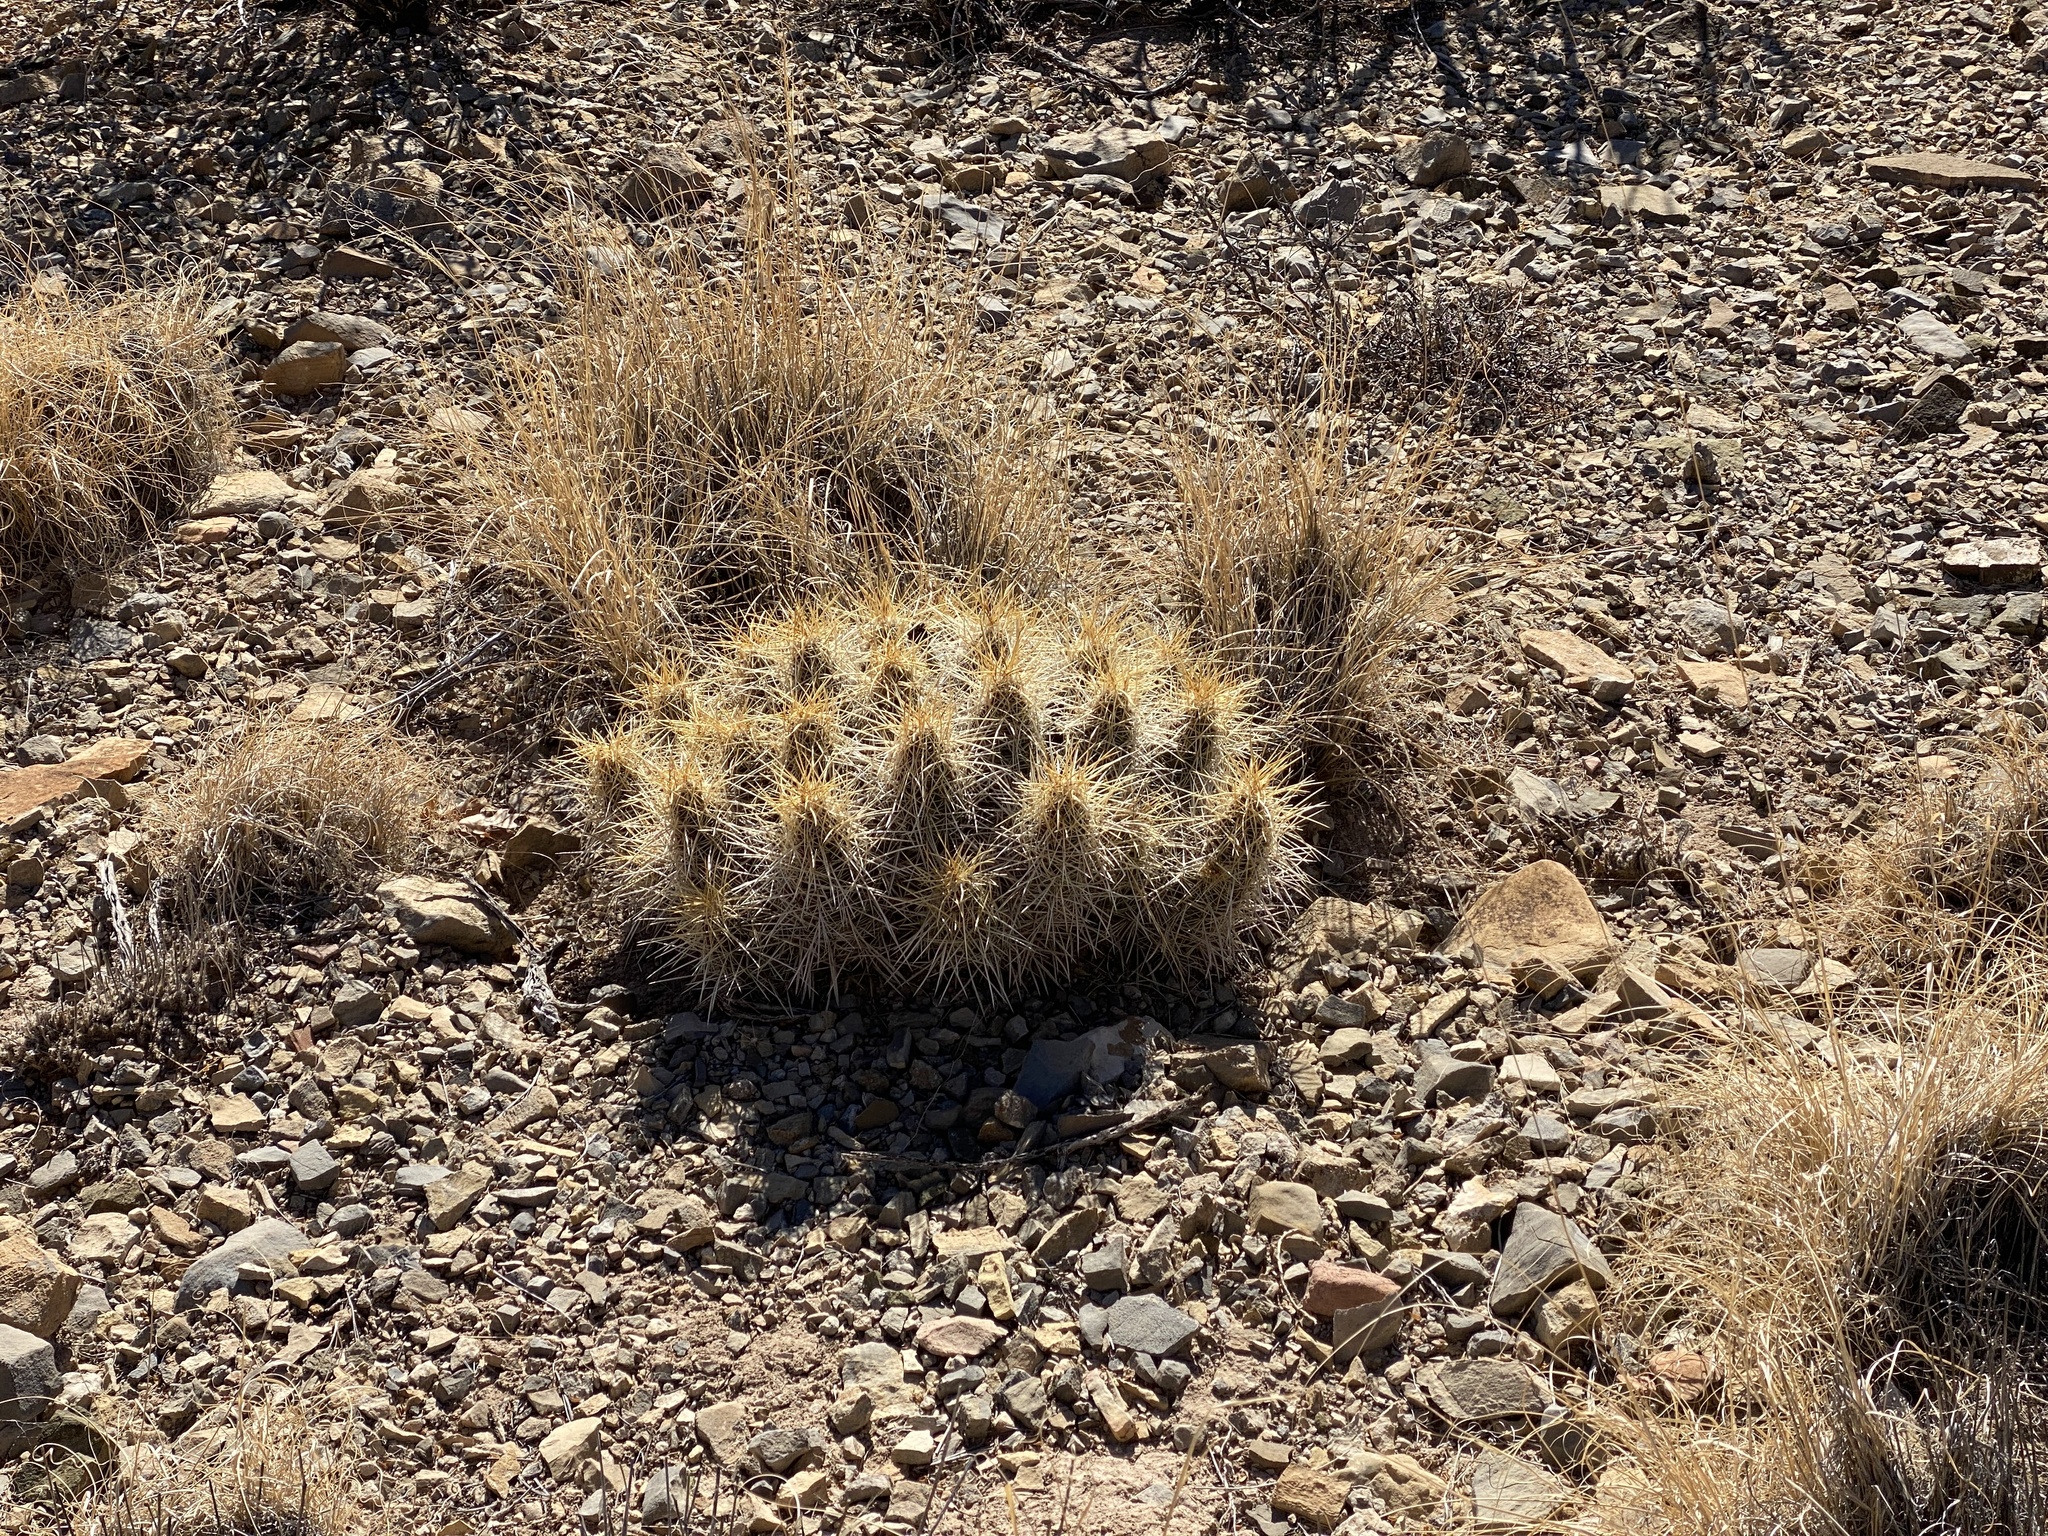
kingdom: Plantae
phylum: Tracheophyta
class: Magnoliopsida
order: Caryophyllales
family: Cactaceae
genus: Echinocereus
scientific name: Echinocereus stramineus
